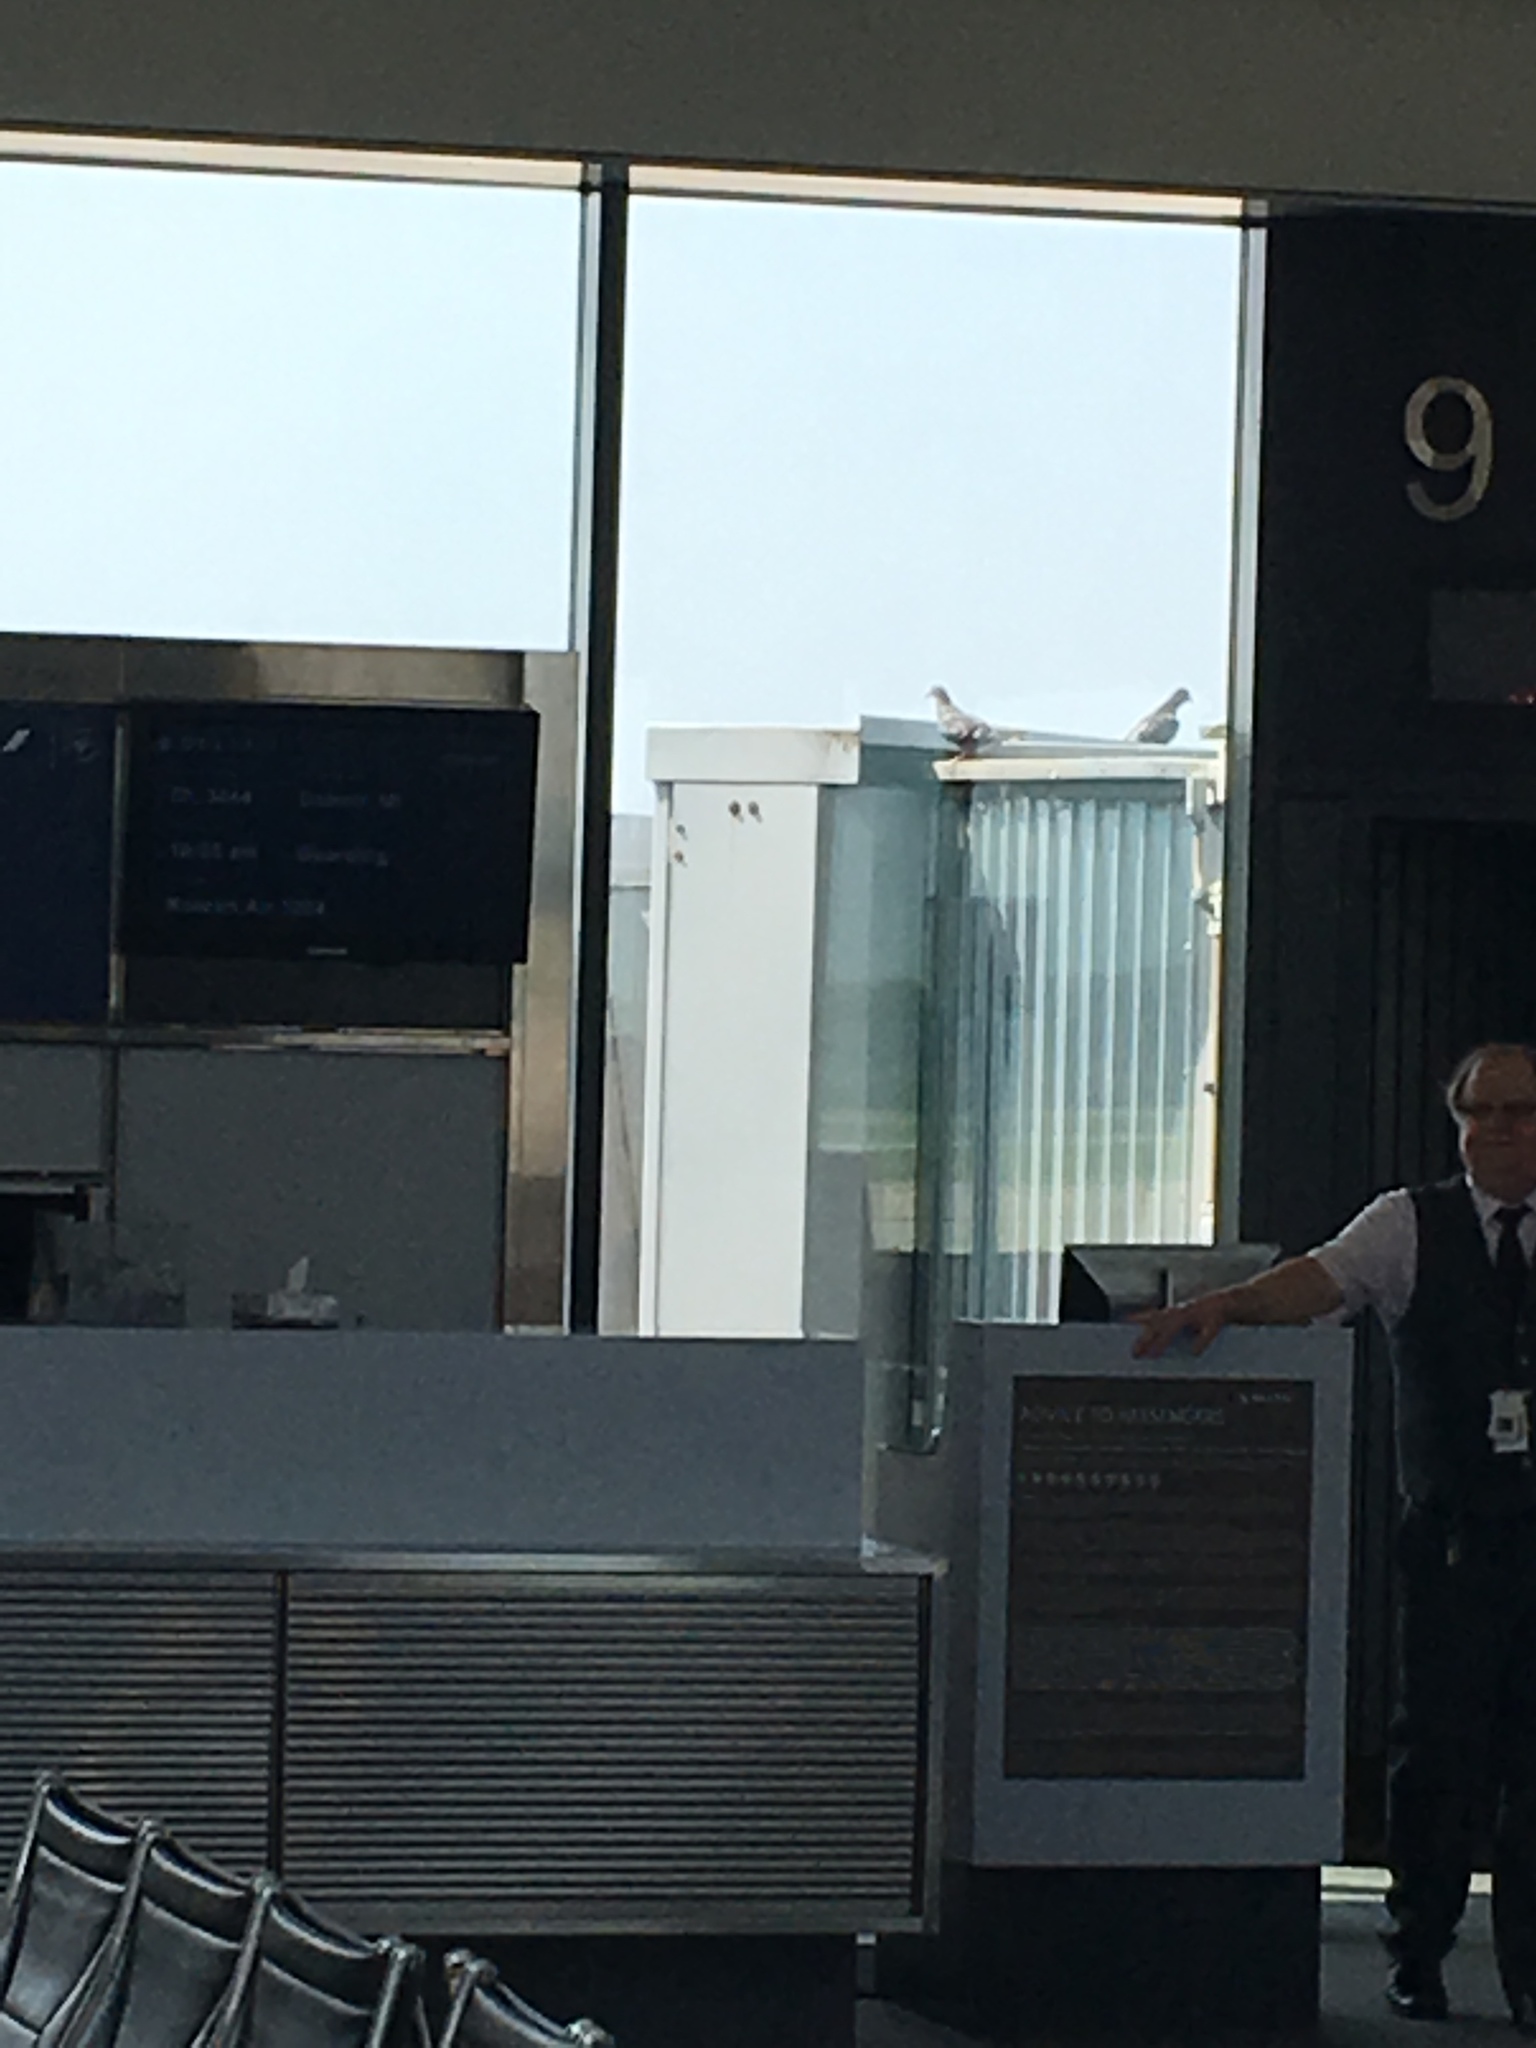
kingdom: Animalia
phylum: Chordata
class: Aves
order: Columbiformes
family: Columbidae
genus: Columba
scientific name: Columba livia
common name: Rock pigeon
